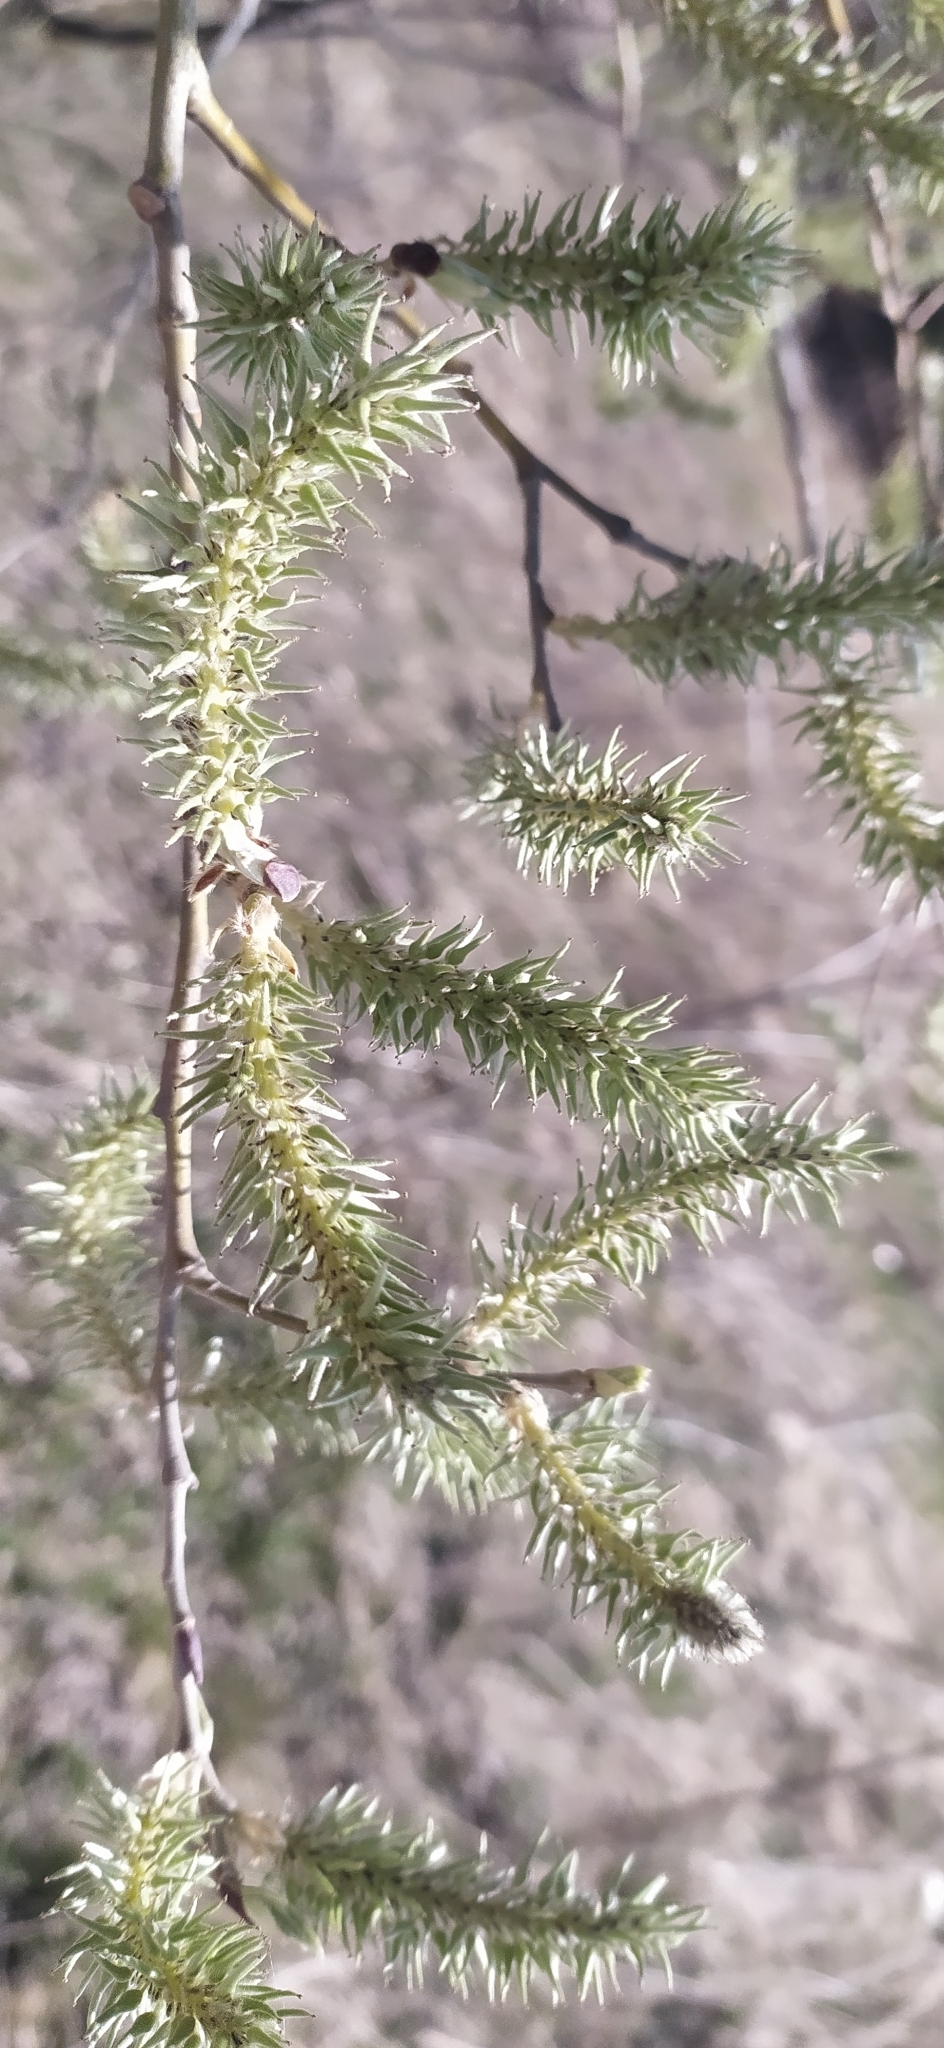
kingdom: Plantae
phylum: Tracheophyta
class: Magnoliopsida
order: Malpighiales
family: Salicaceae
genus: Salix
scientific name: Salix caprea
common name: Goat willow
